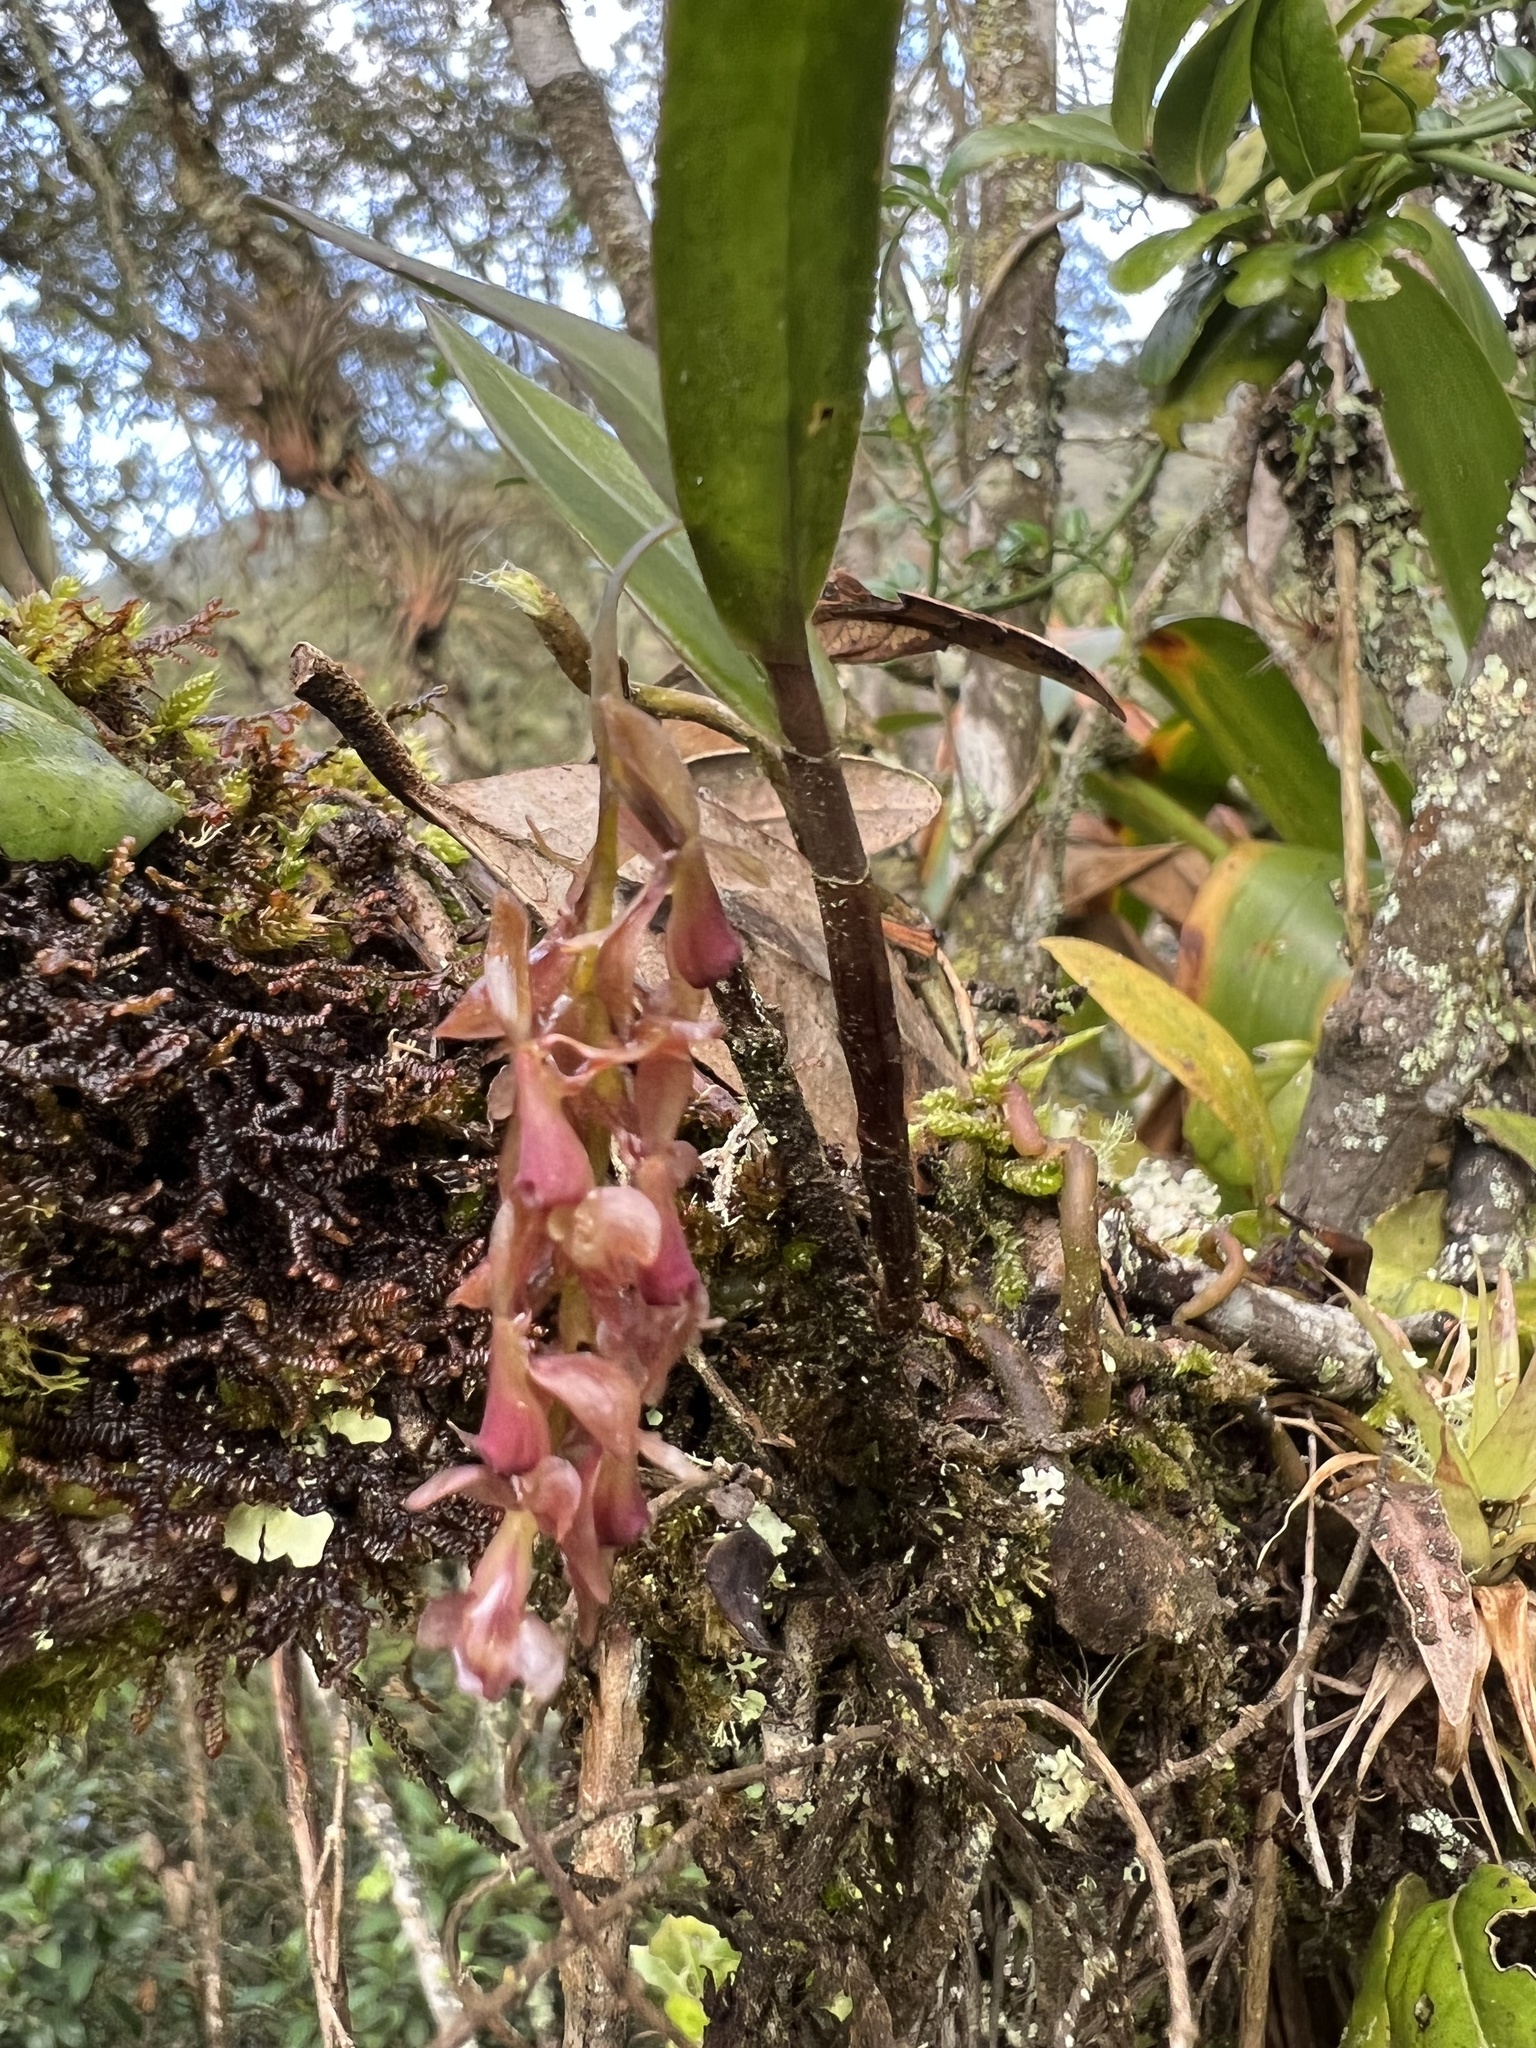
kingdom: Plantae
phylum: Tracheophyta
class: Liliopsida
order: Asparagales
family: Orchidaceae
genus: Epidendrum
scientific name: Epidendrum karstenii
